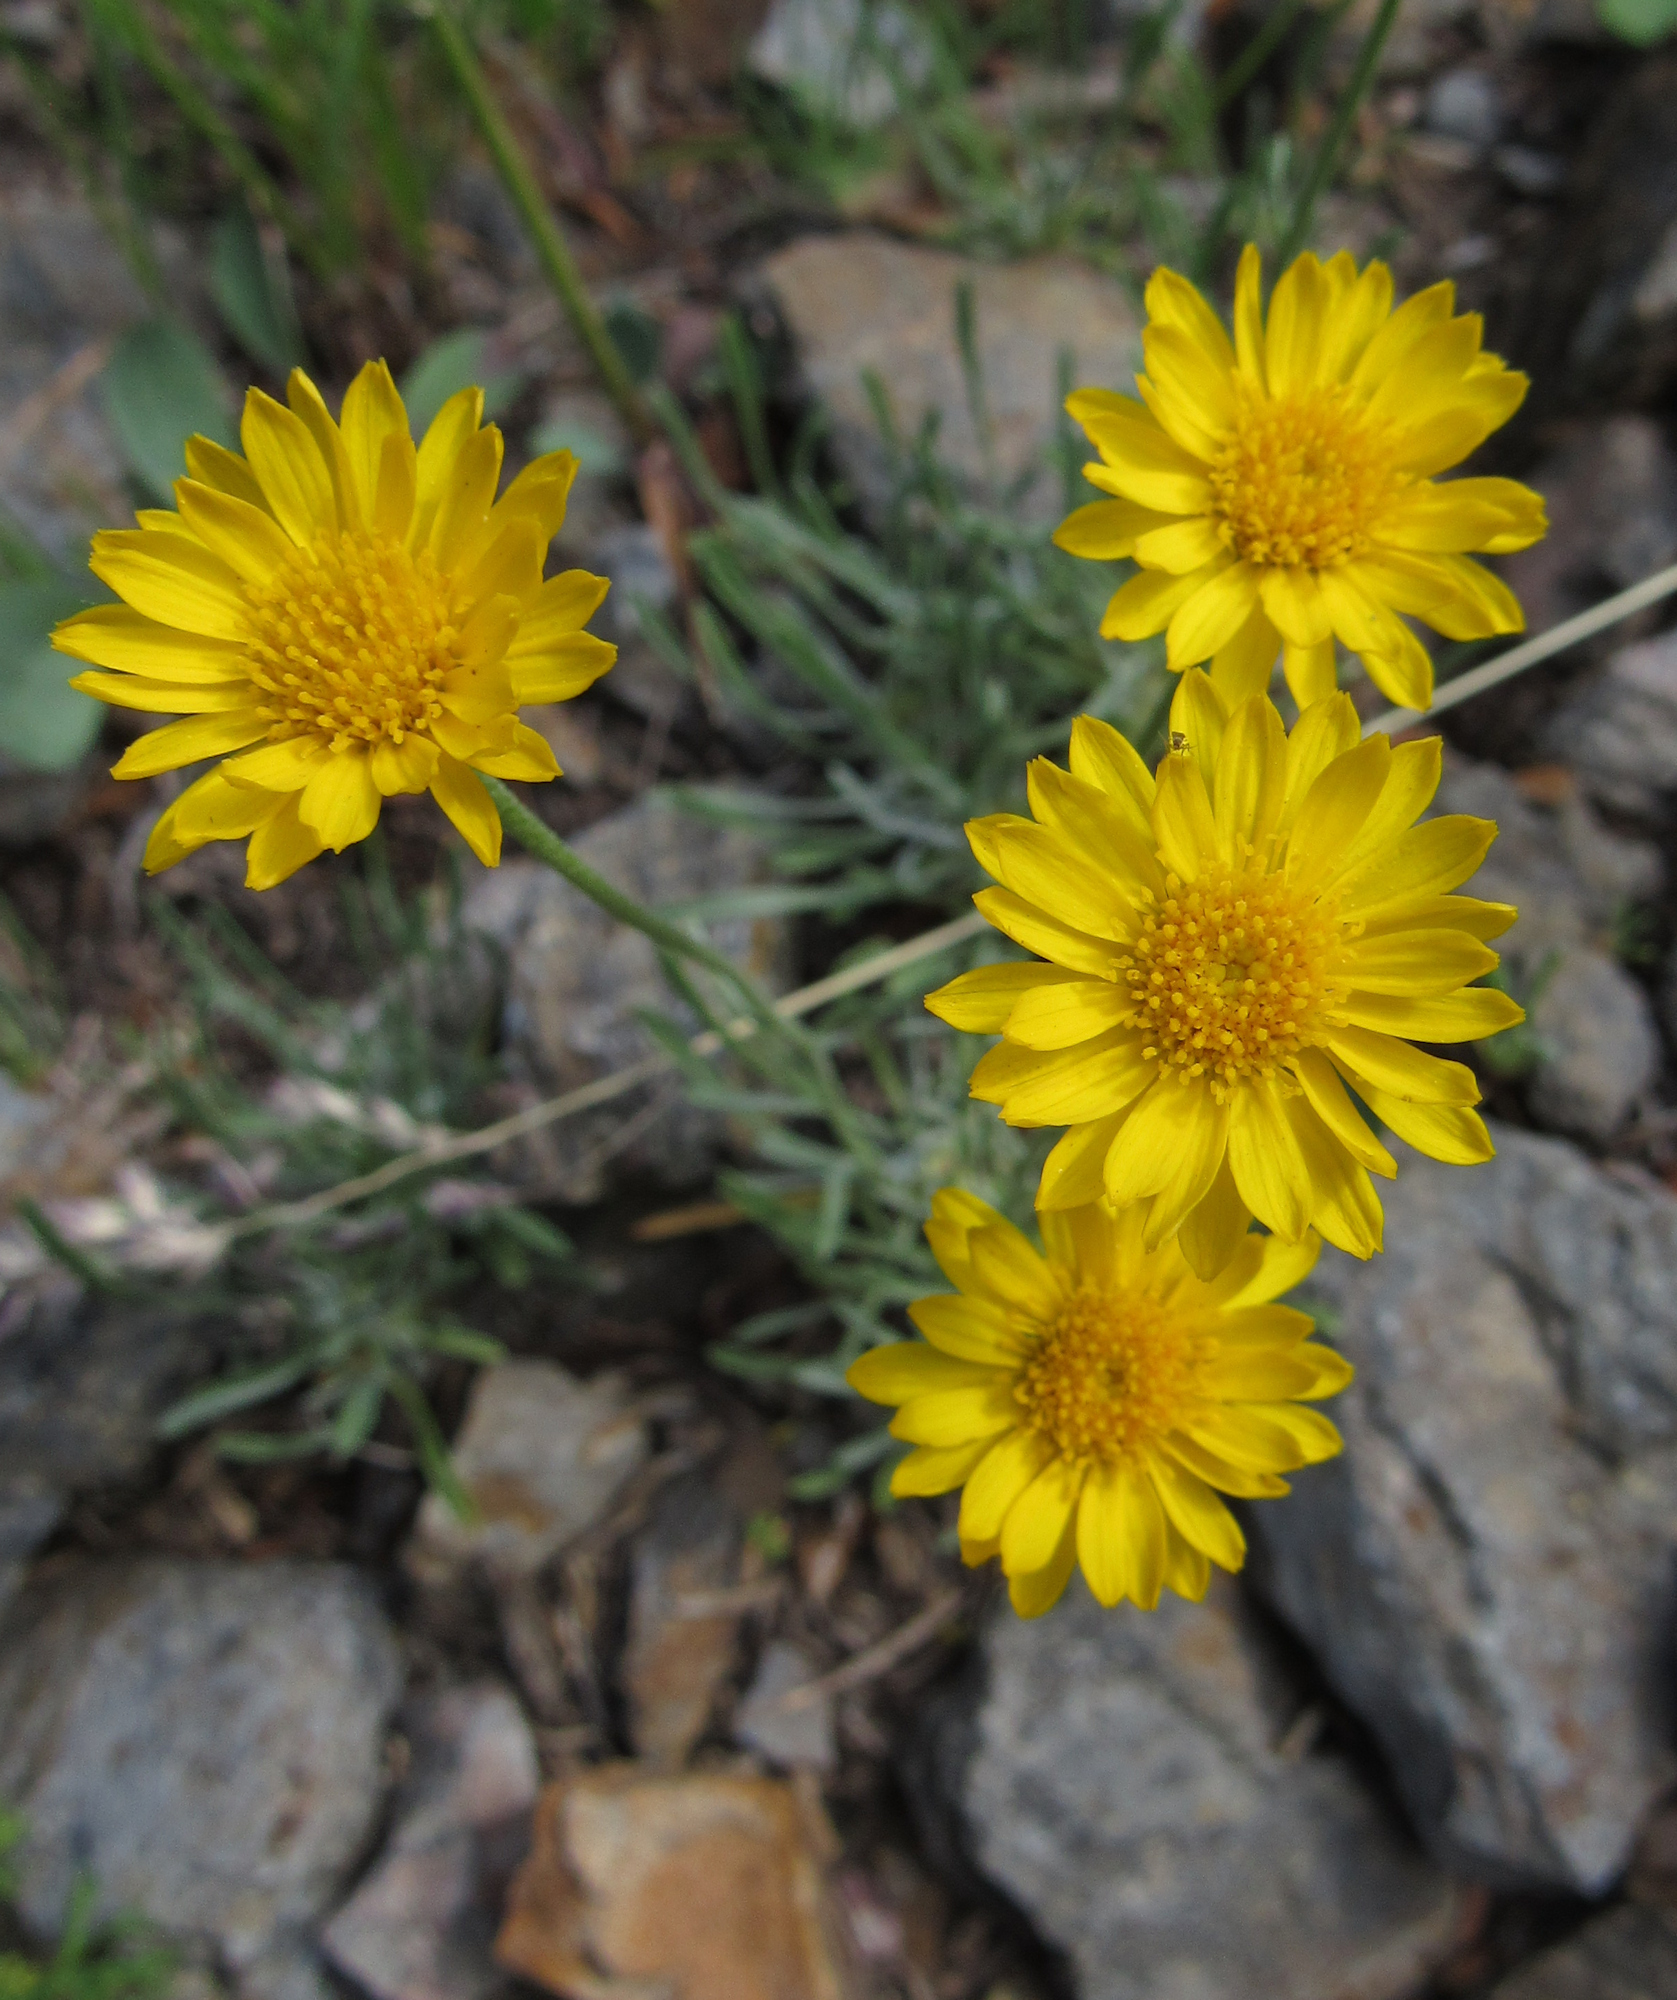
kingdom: Plantae
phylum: Tracheophyta
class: Magnoliopsida
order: Asterales
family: Asteraceae
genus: Erigeron
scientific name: Erigeron linearis
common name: Desert yellow fleabane
